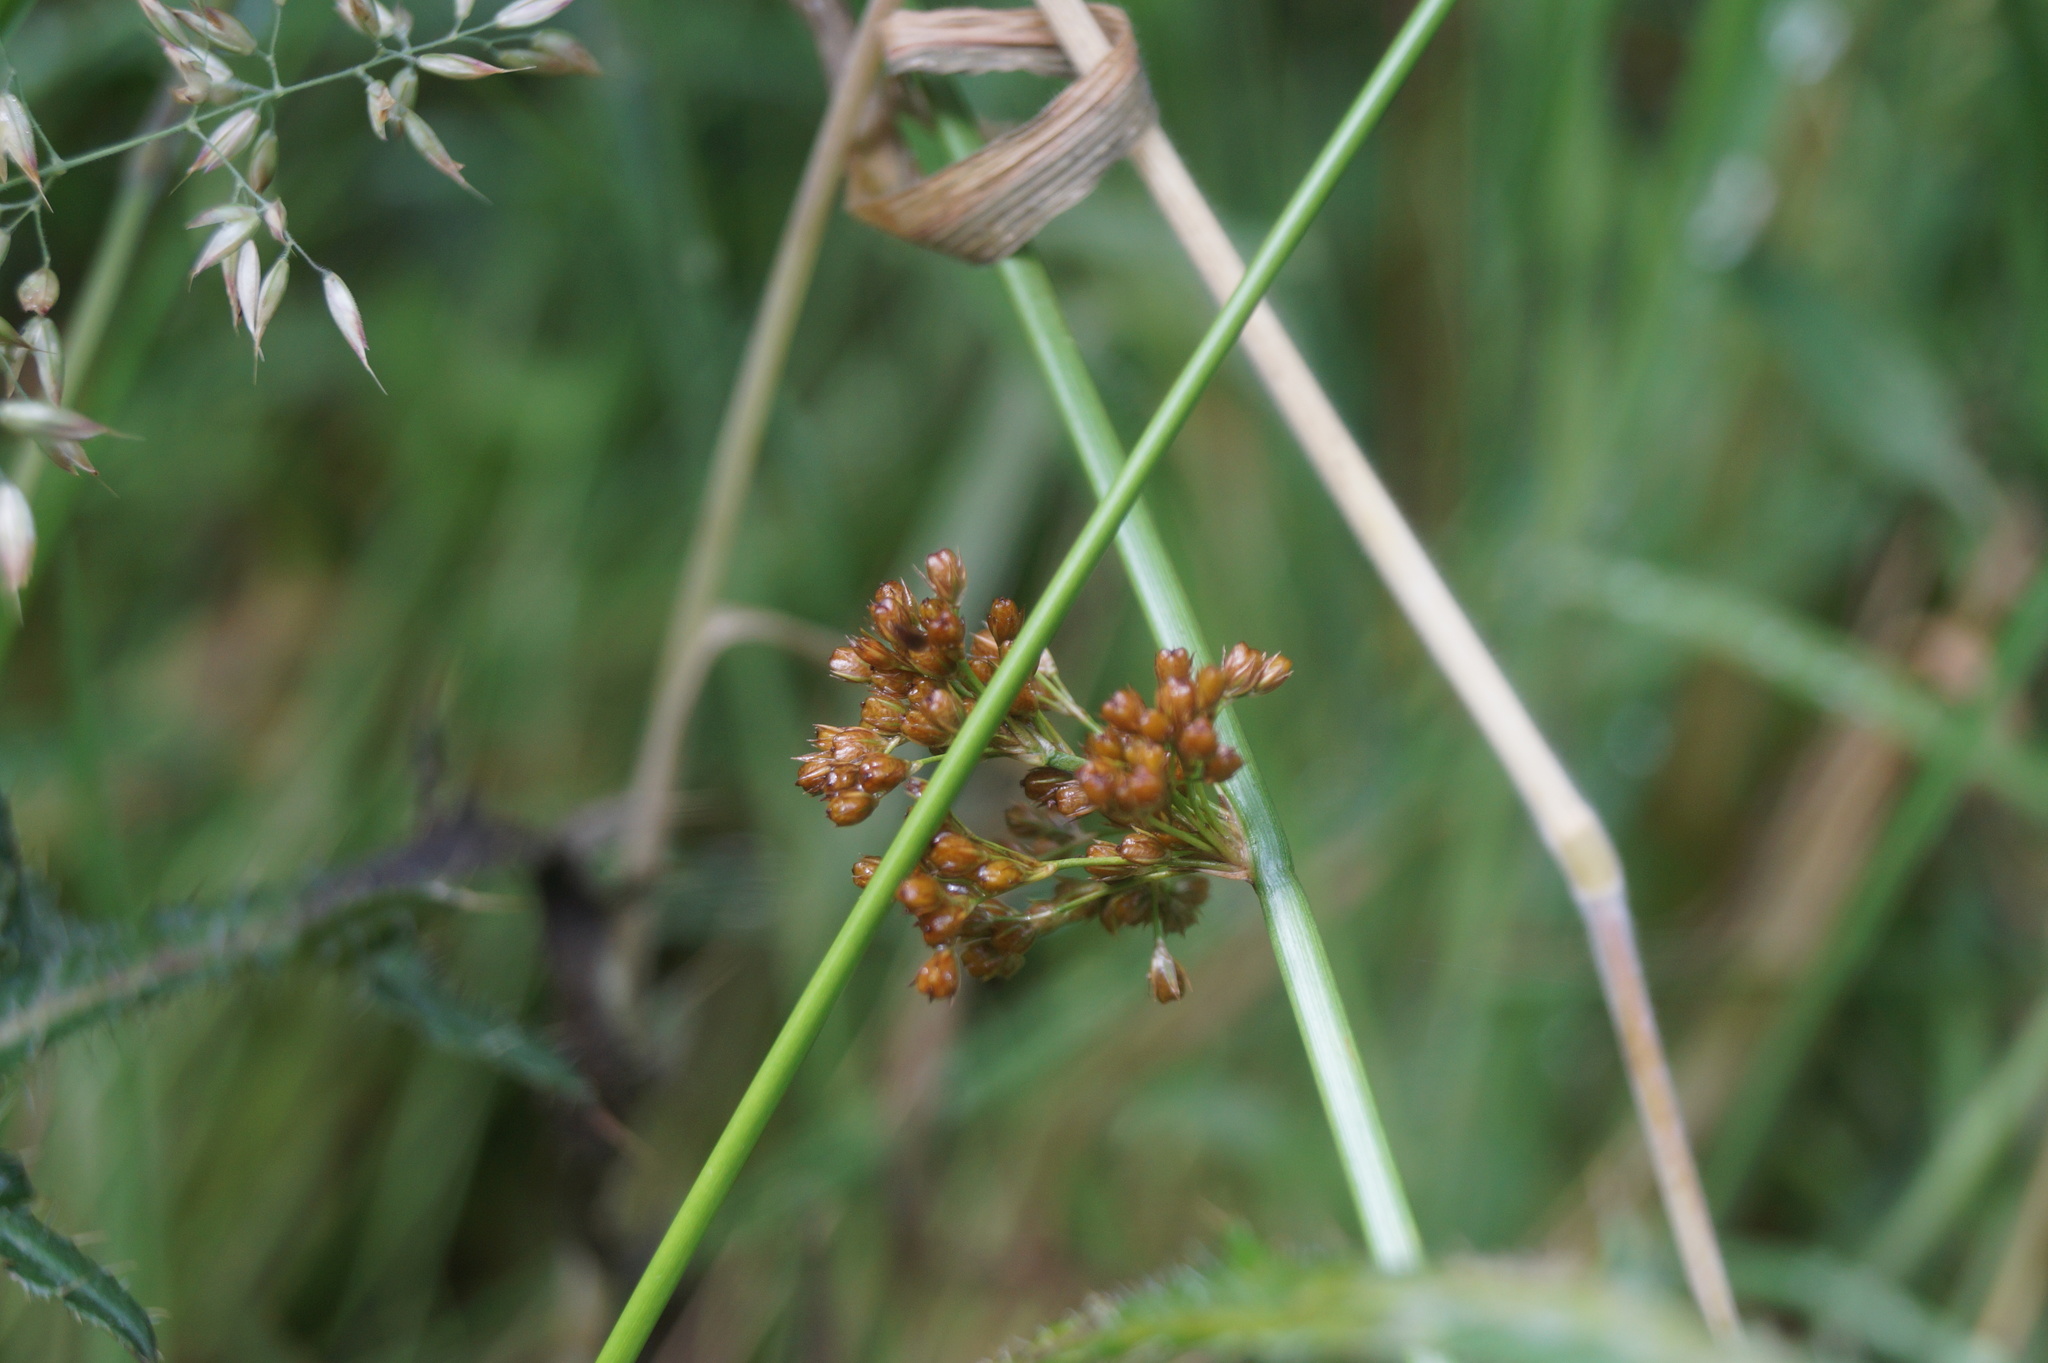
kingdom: Plantae
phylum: Tracheophyta
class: Liliopsida
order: Poales
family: Juncaceae
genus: Juncus
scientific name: Juncus effusus
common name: Soft rush
